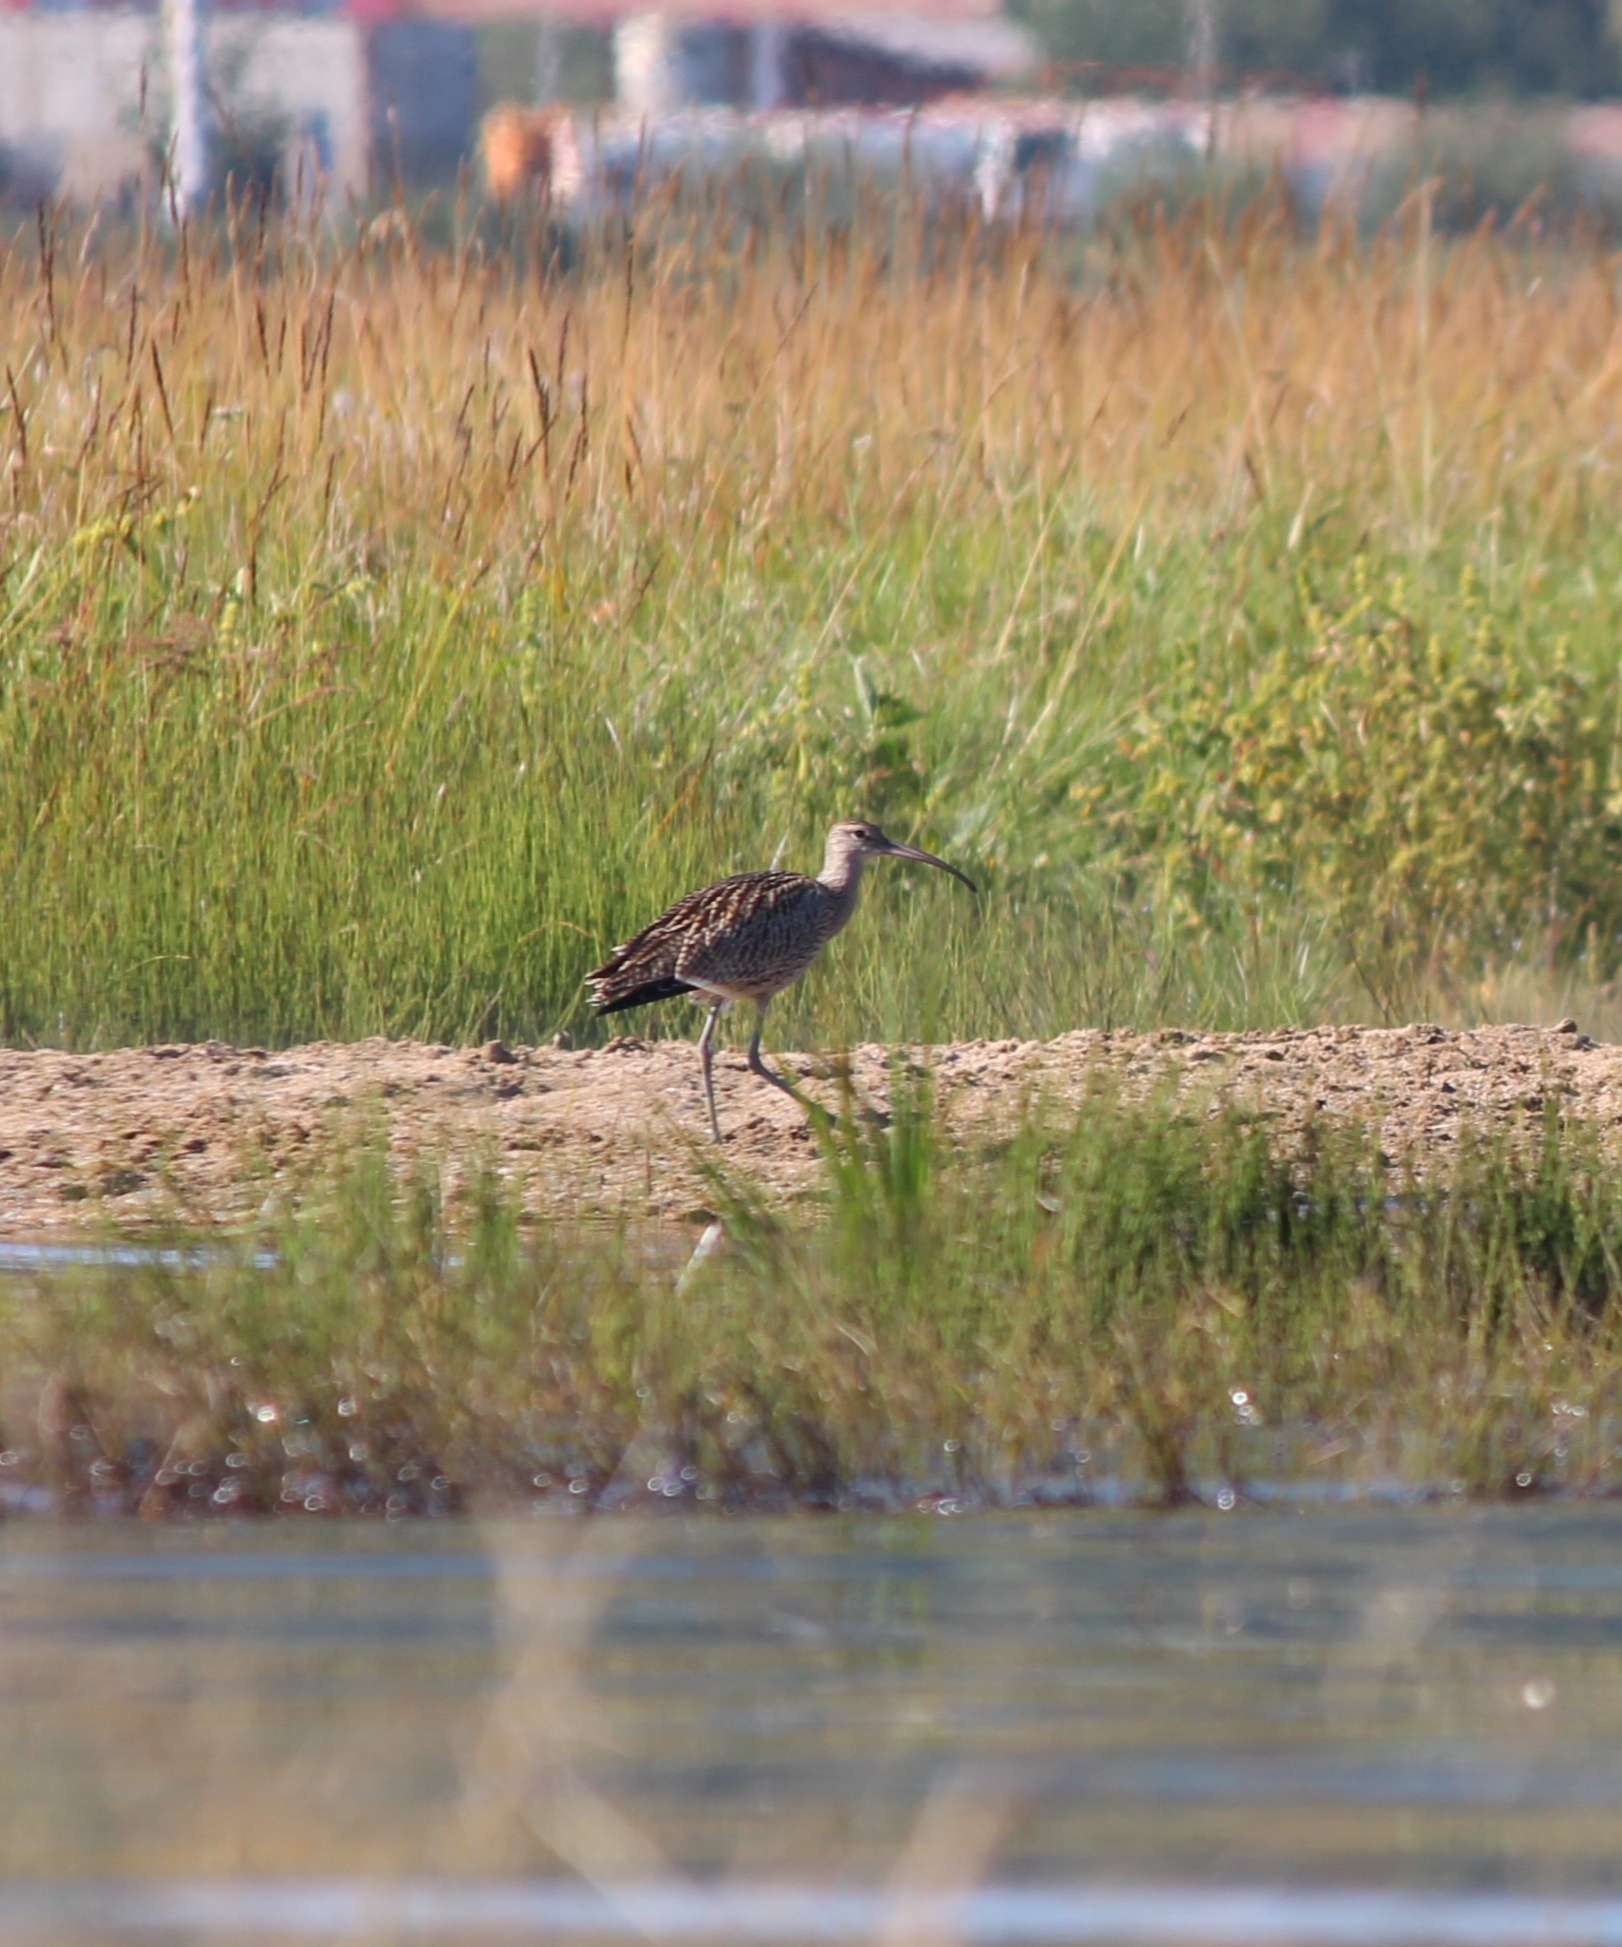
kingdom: Animalia
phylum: Chordata
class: Aves
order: Charadriiformes
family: Scolopacidae
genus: Numenius
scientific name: Numenius madagascariensis
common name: Far eastern curlew
